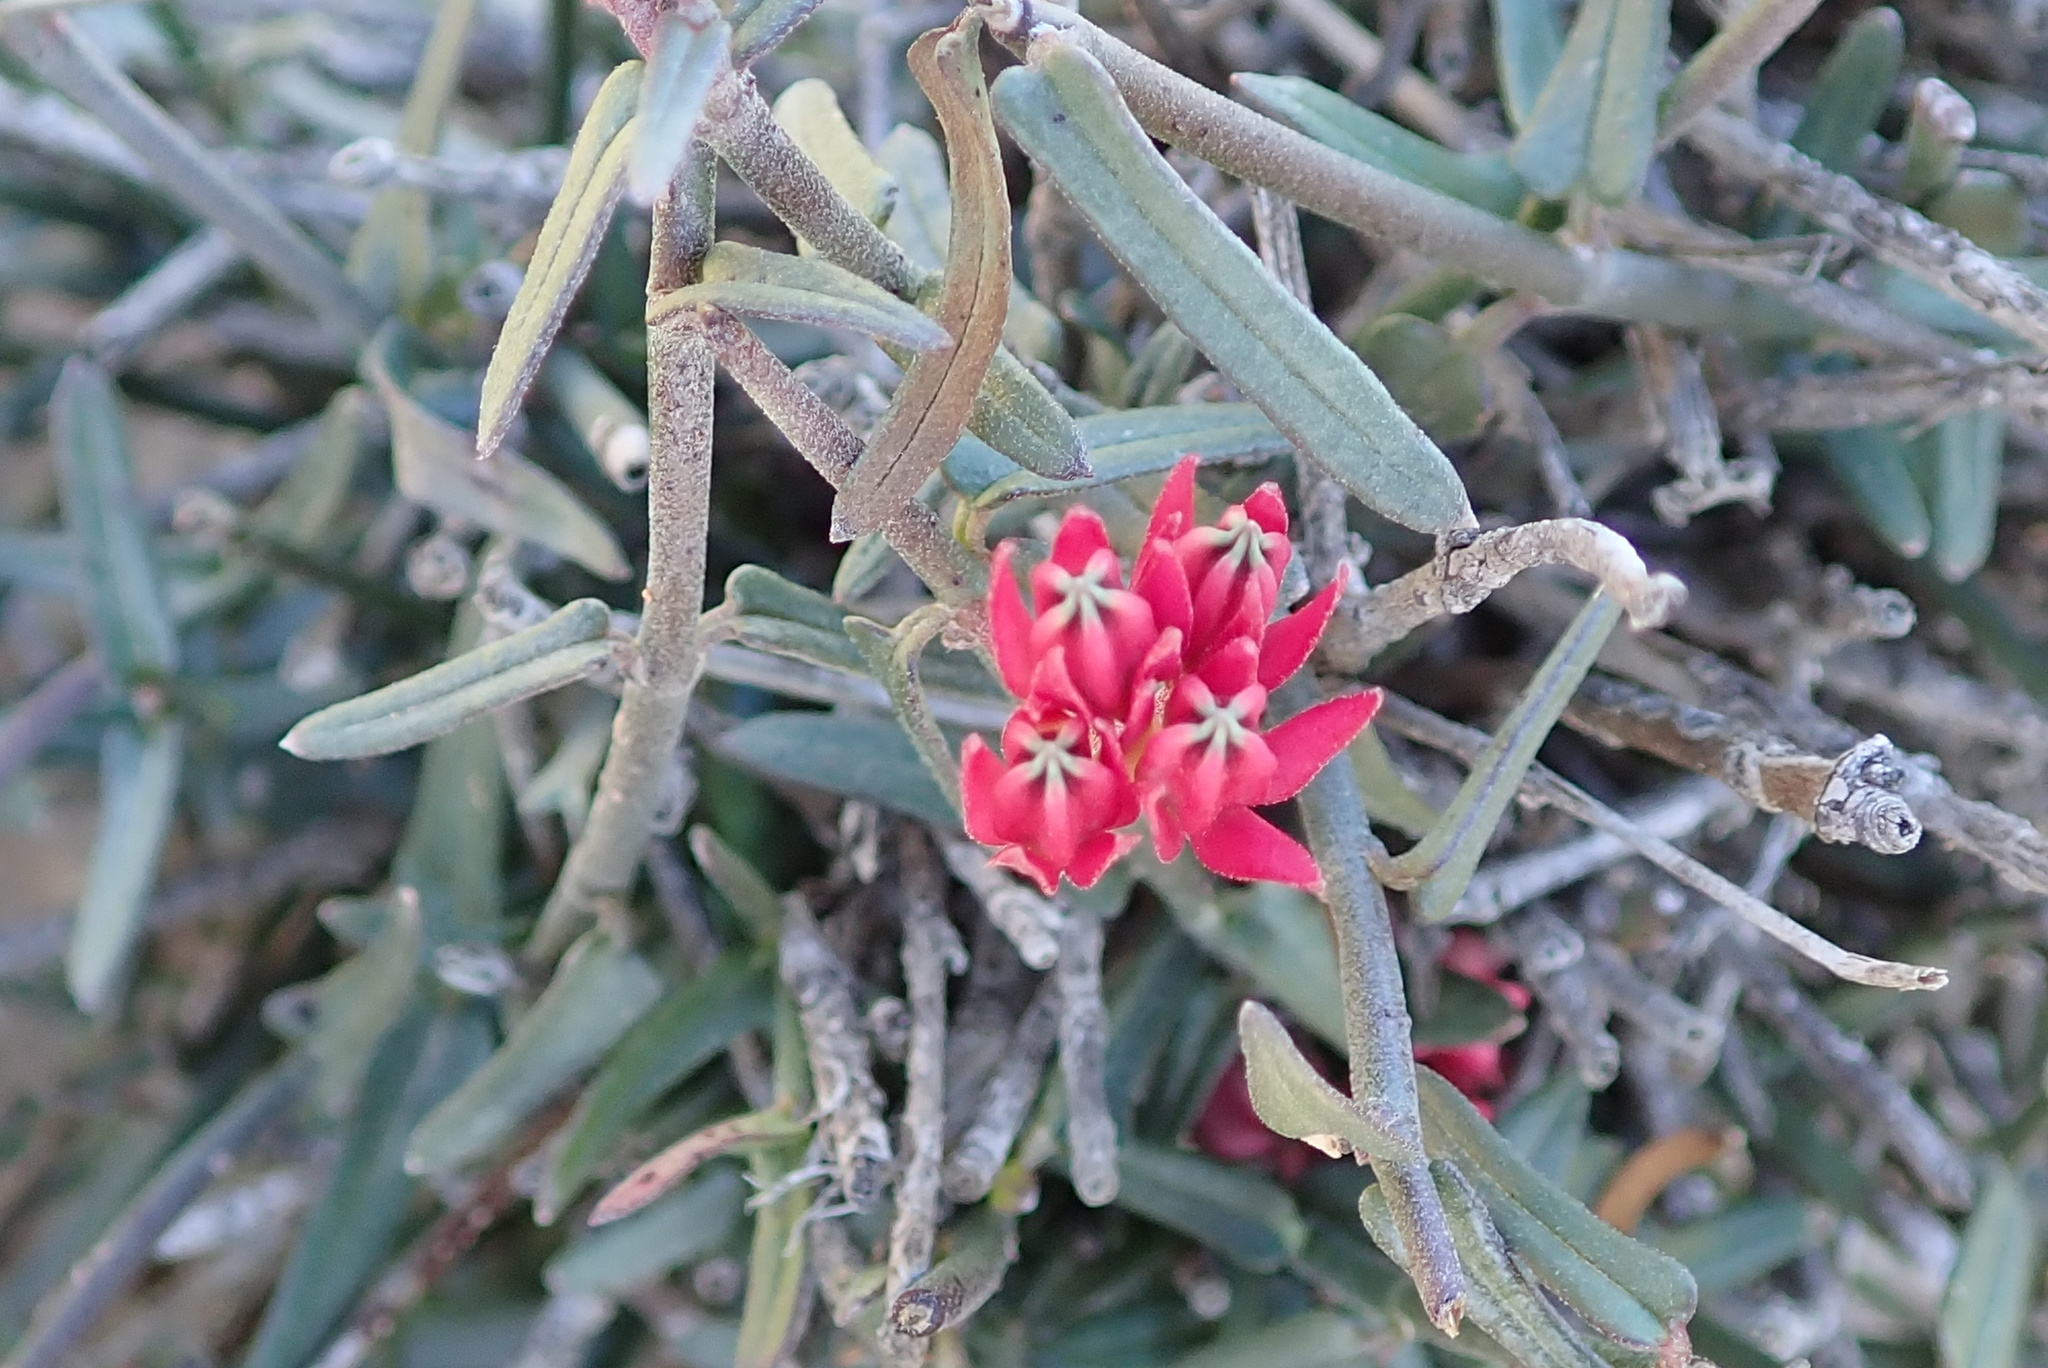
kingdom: Plantae
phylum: Tracheophyta
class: Magnoliopsida
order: Gentianales
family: Apocynaceae
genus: Microloma
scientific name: Microloma sagittatum
